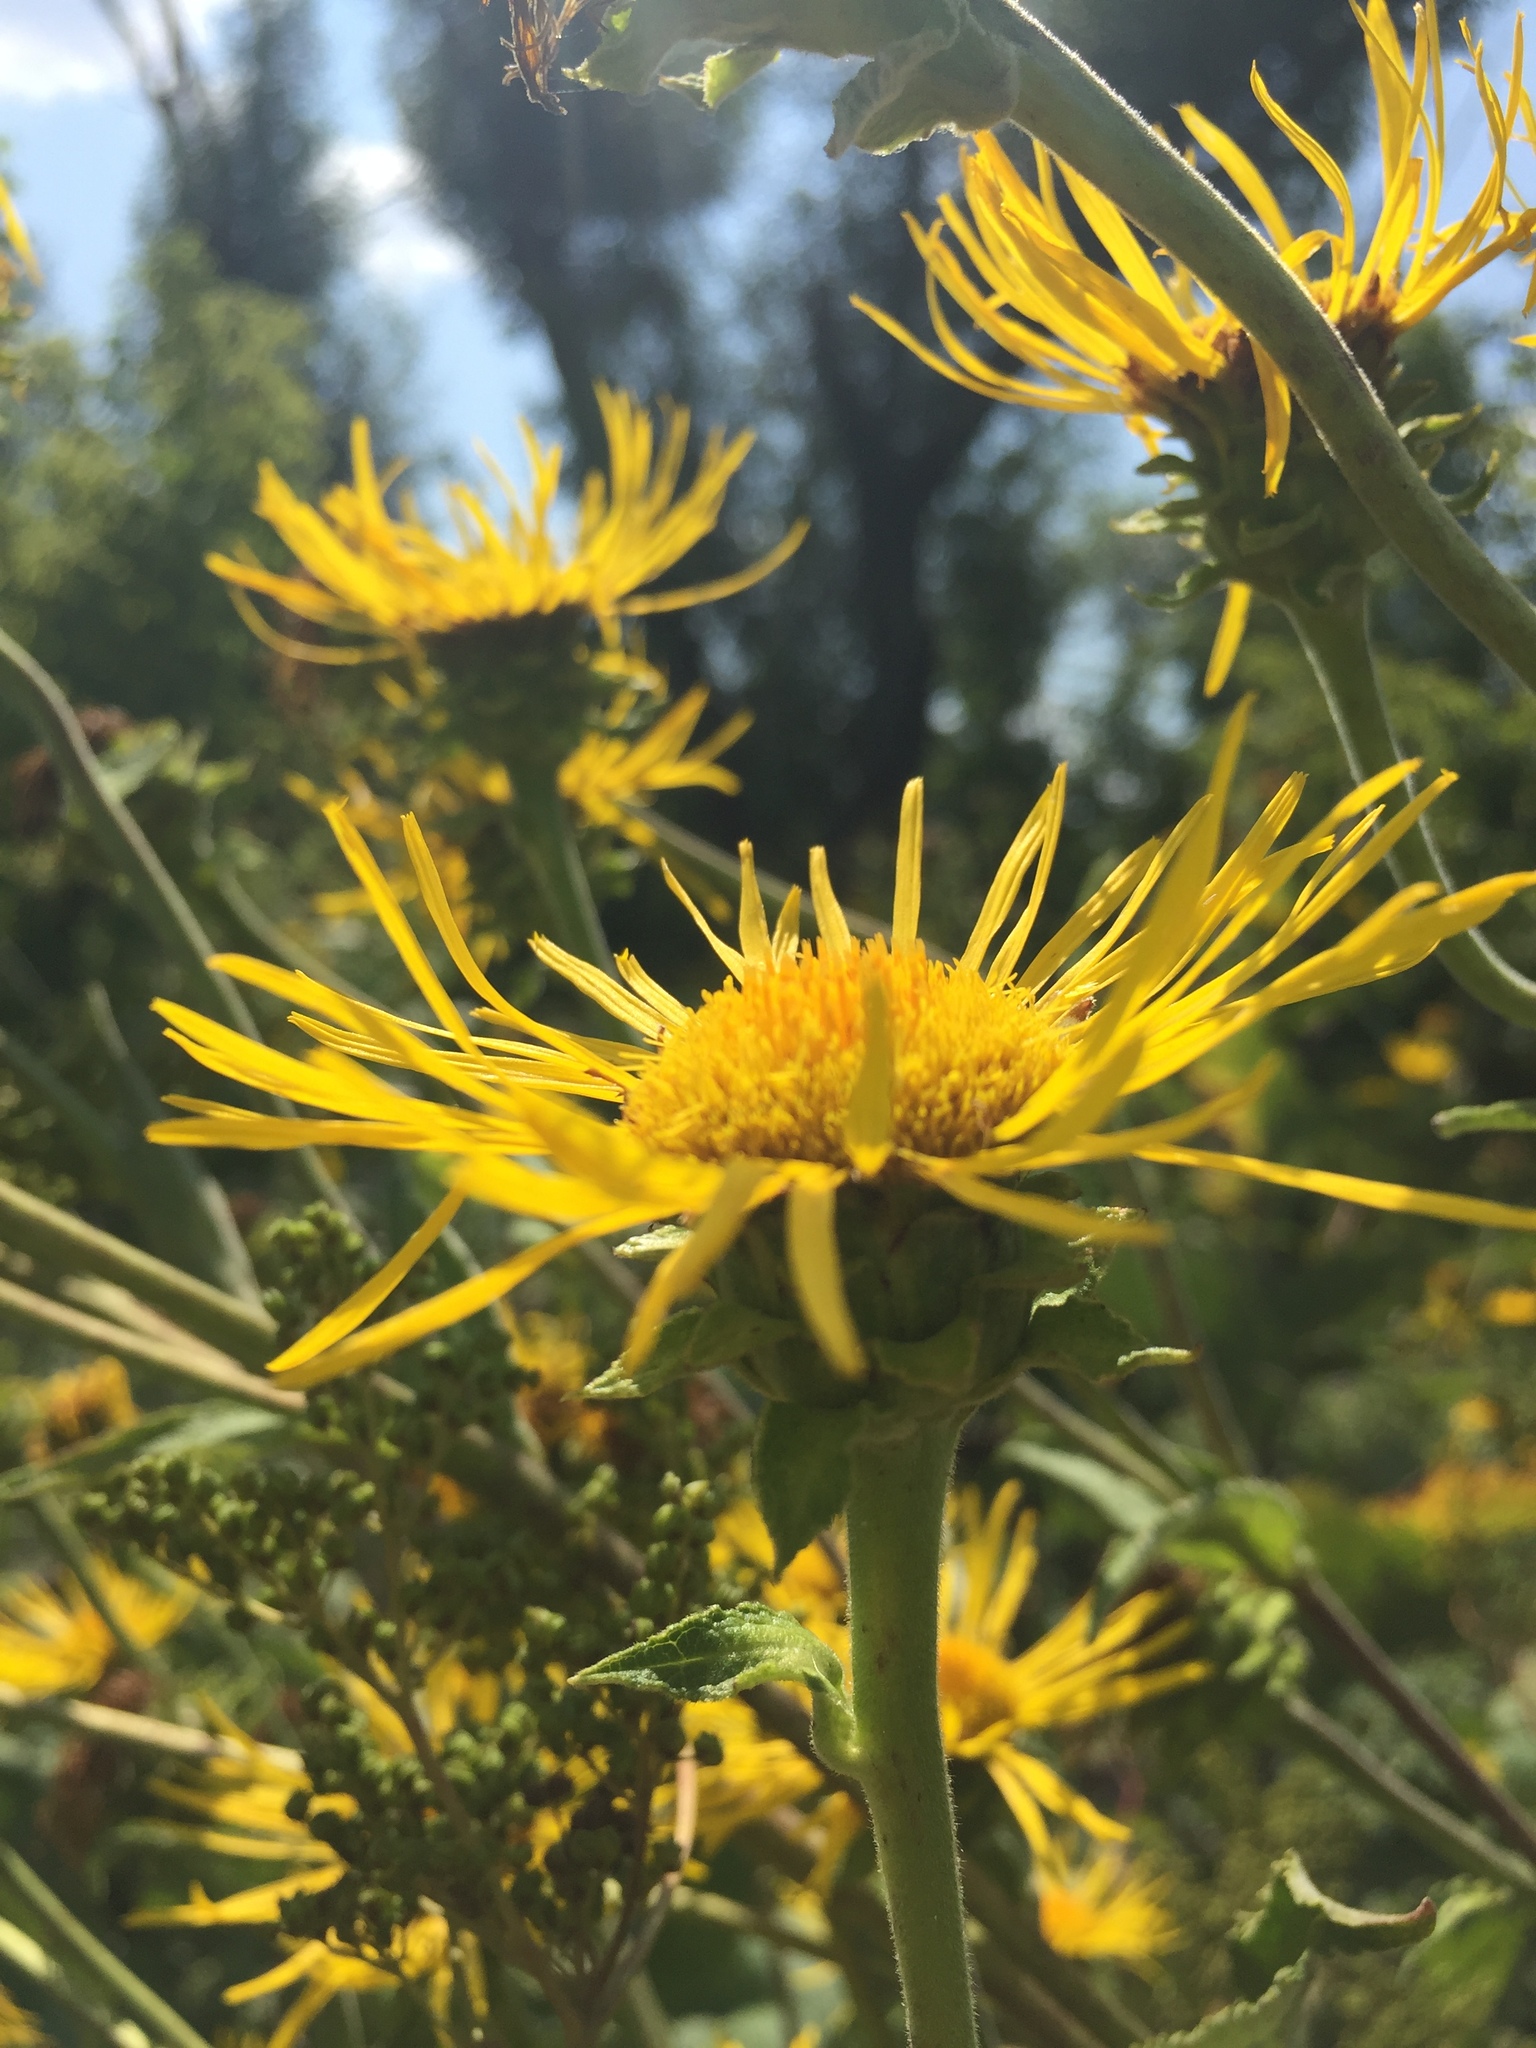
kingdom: Plantae
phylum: Tracheophyta
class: Magnoliopsida
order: Asterales
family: Asteraceae
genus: Inula
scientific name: Inula helenium
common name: Elecampane
